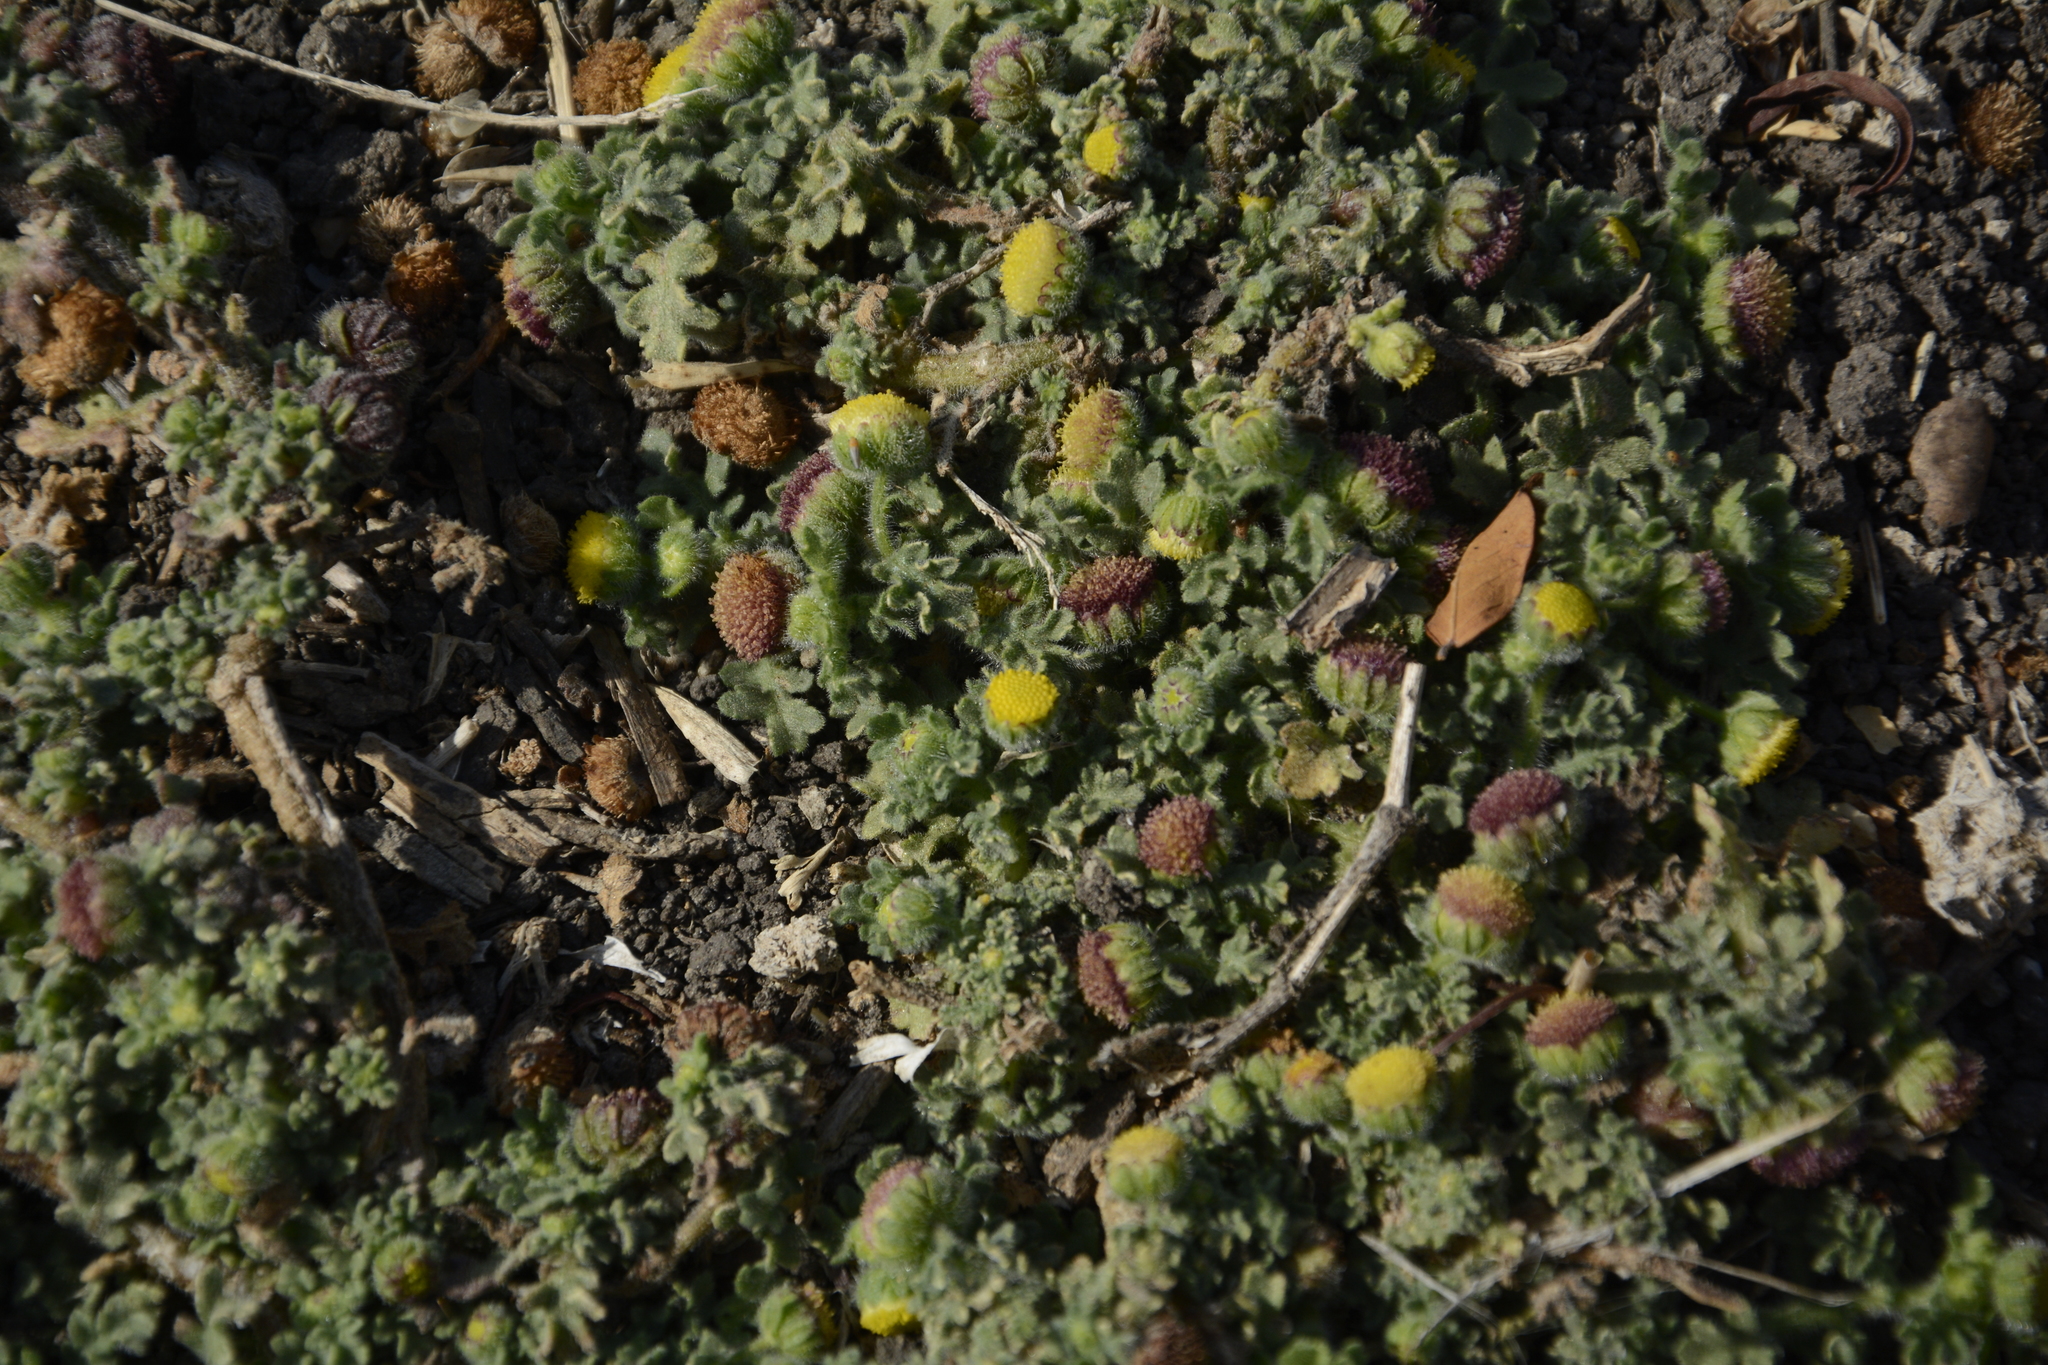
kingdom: Plantae
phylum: Tracheophyta
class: Magnoliopsida
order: Asterales
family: Asteraceae
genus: Grangea
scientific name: Grangea maderaspatana
